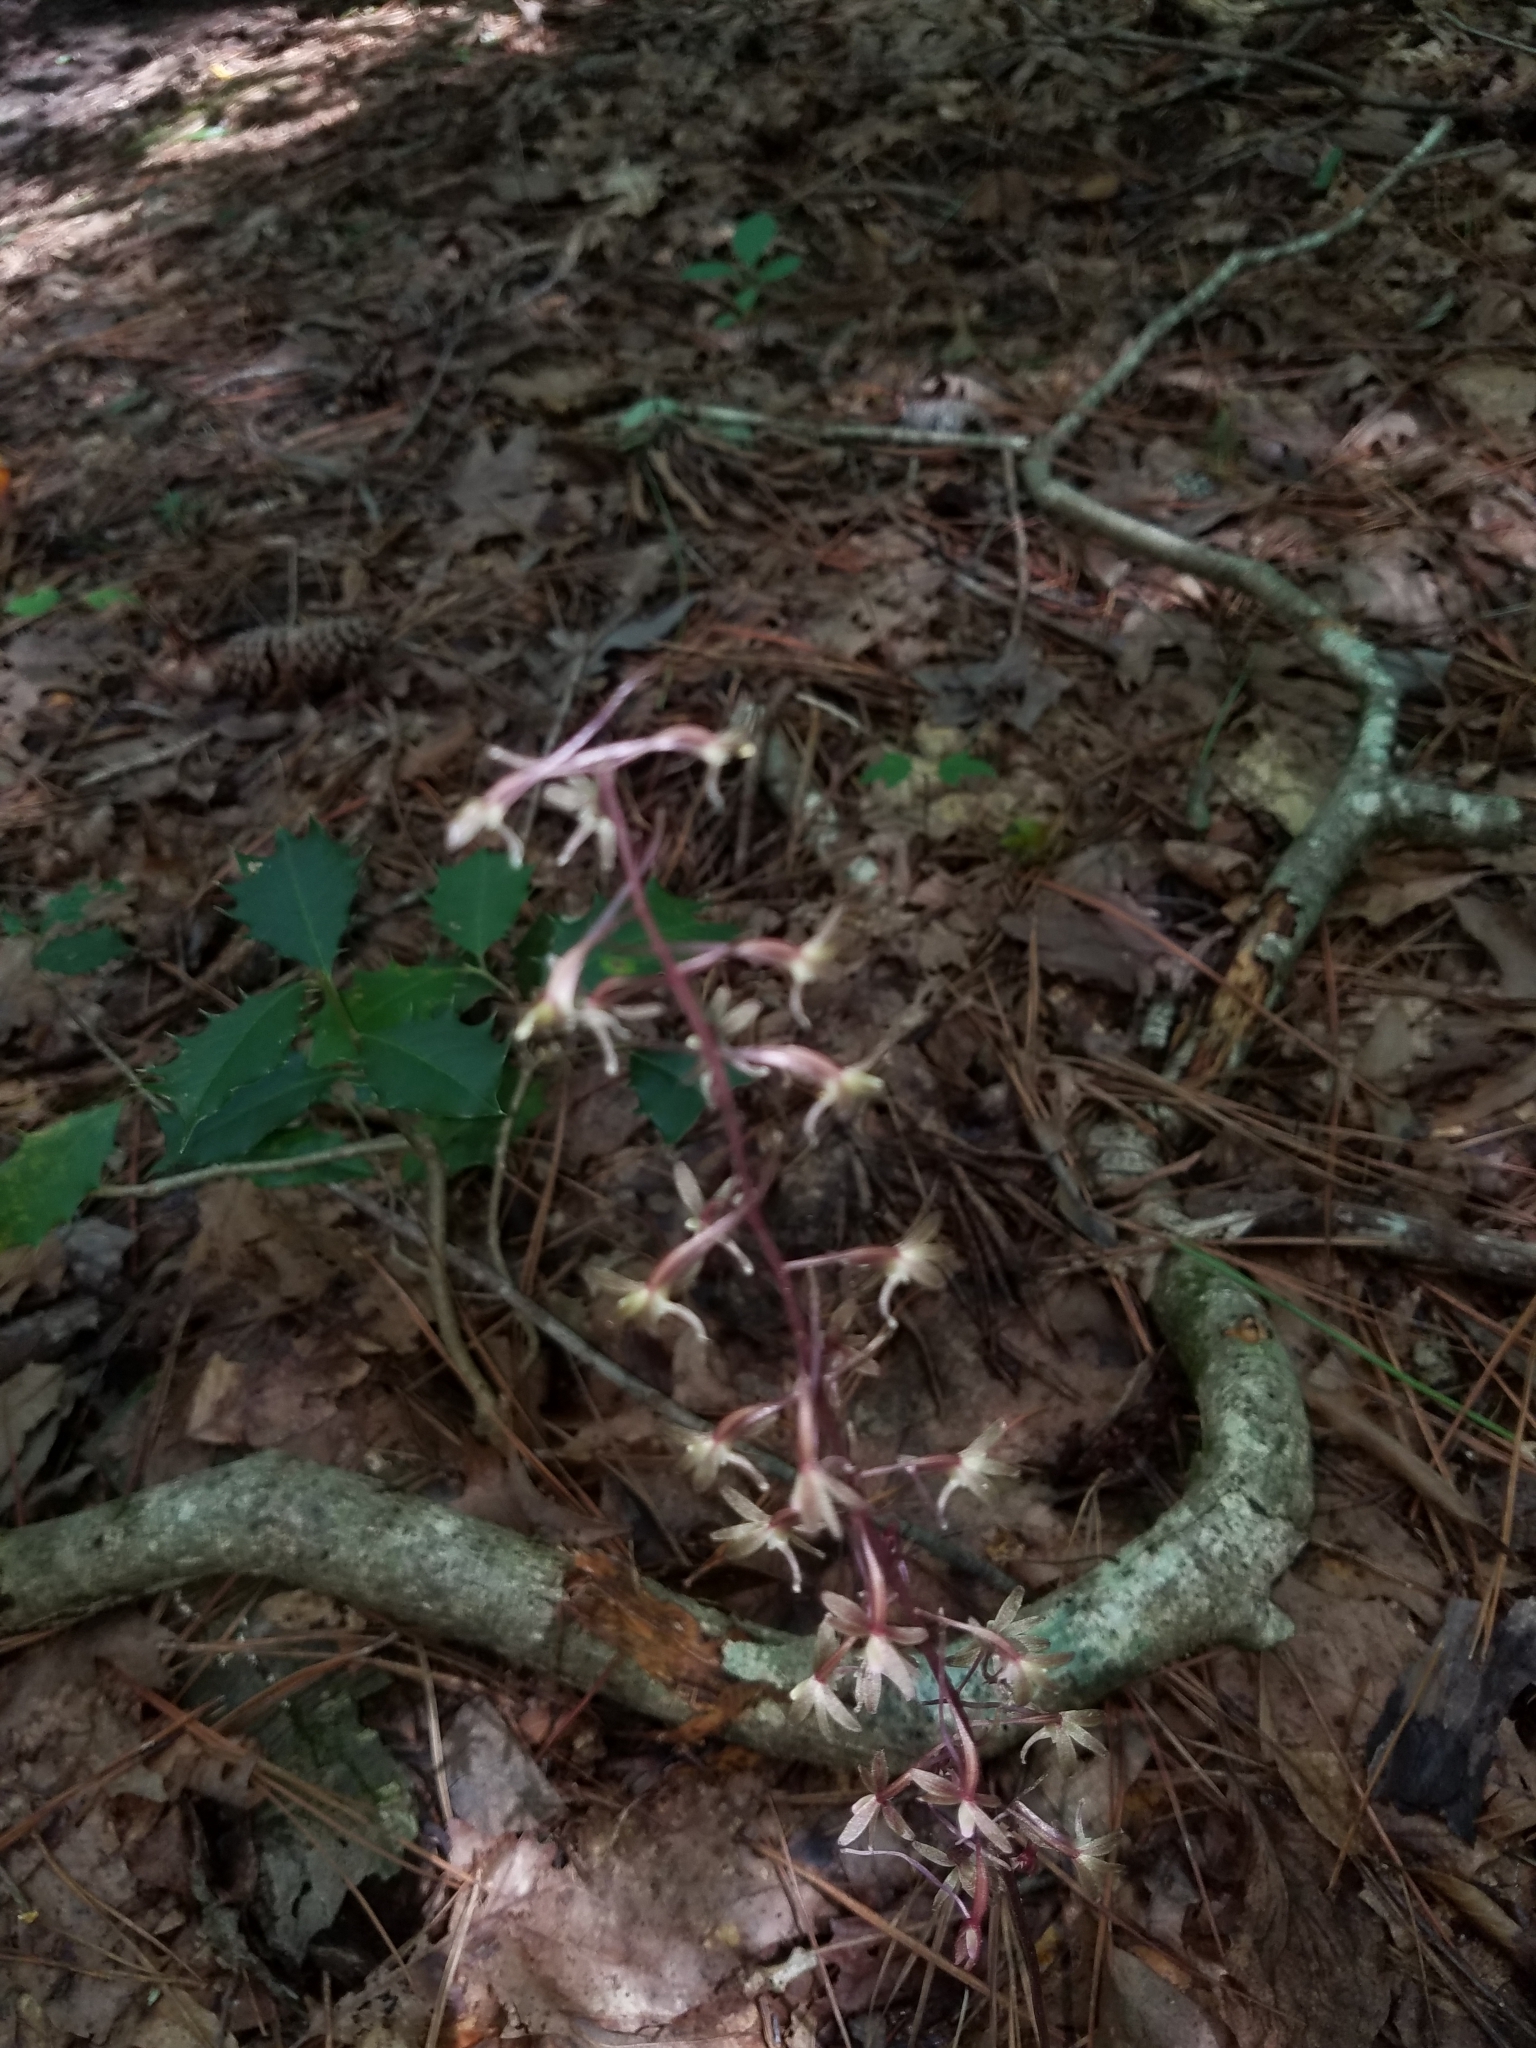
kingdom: Plantae
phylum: Tracheophyta
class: Liliopsida
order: Asparagales
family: Orchidaceae
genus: Tipularia
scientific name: Tipularia discolor
